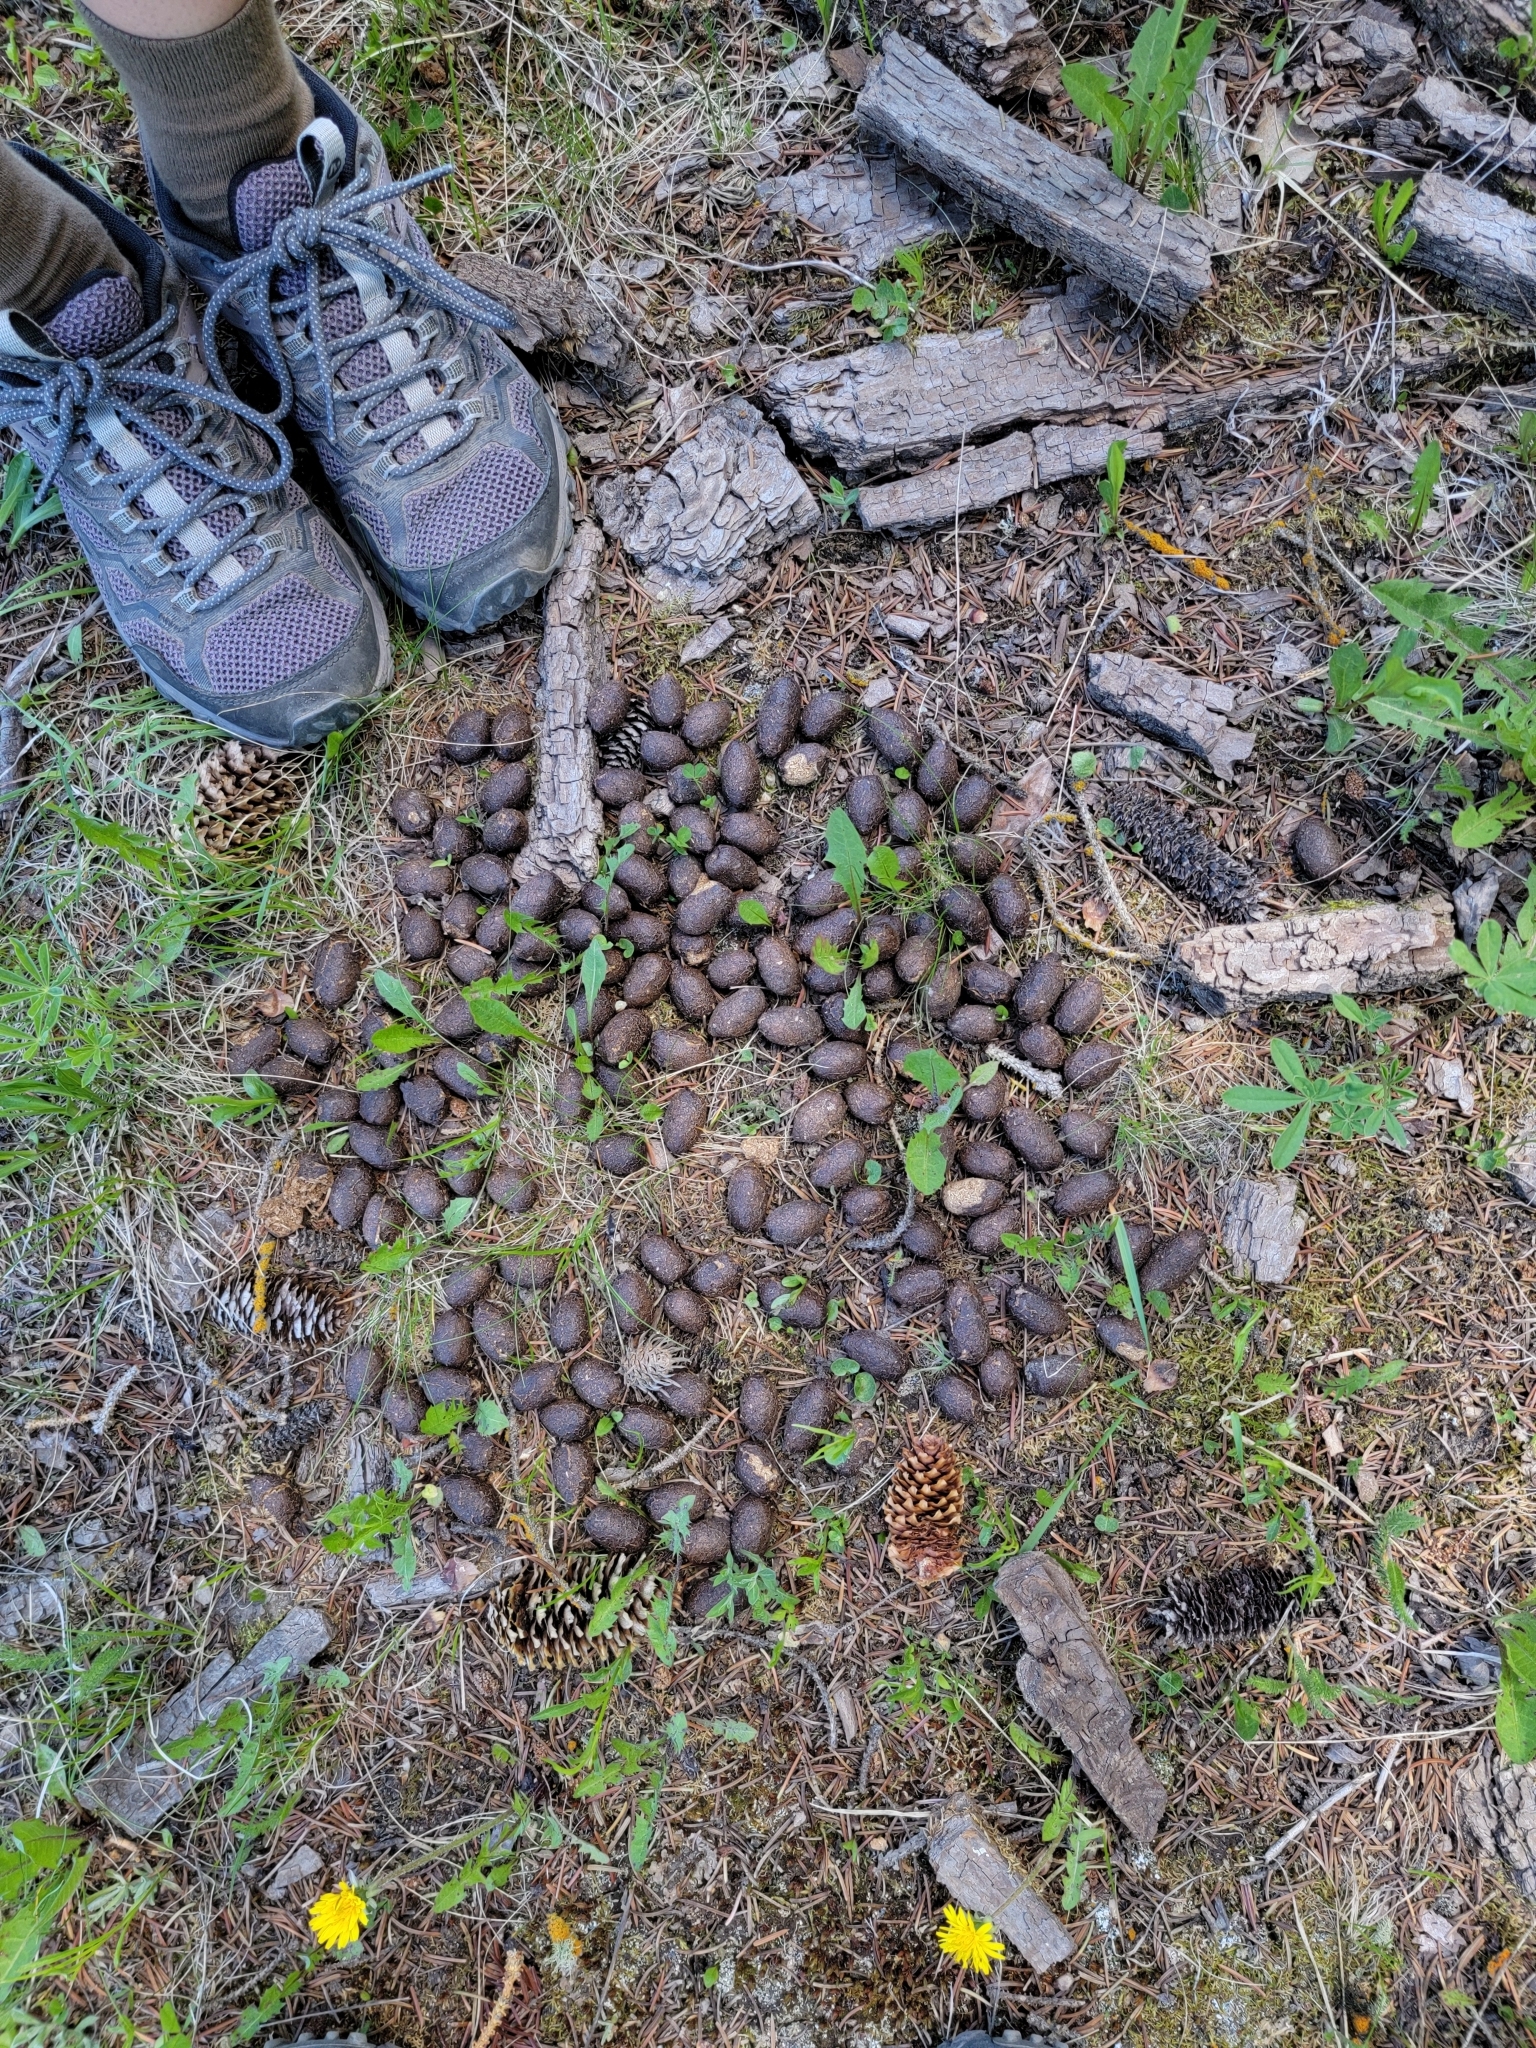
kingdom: Animalia
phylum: Chordata
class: Mammalia
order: Artiodactyla
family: Cervidae
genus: Alces
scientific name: Alces alces
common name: Moose
